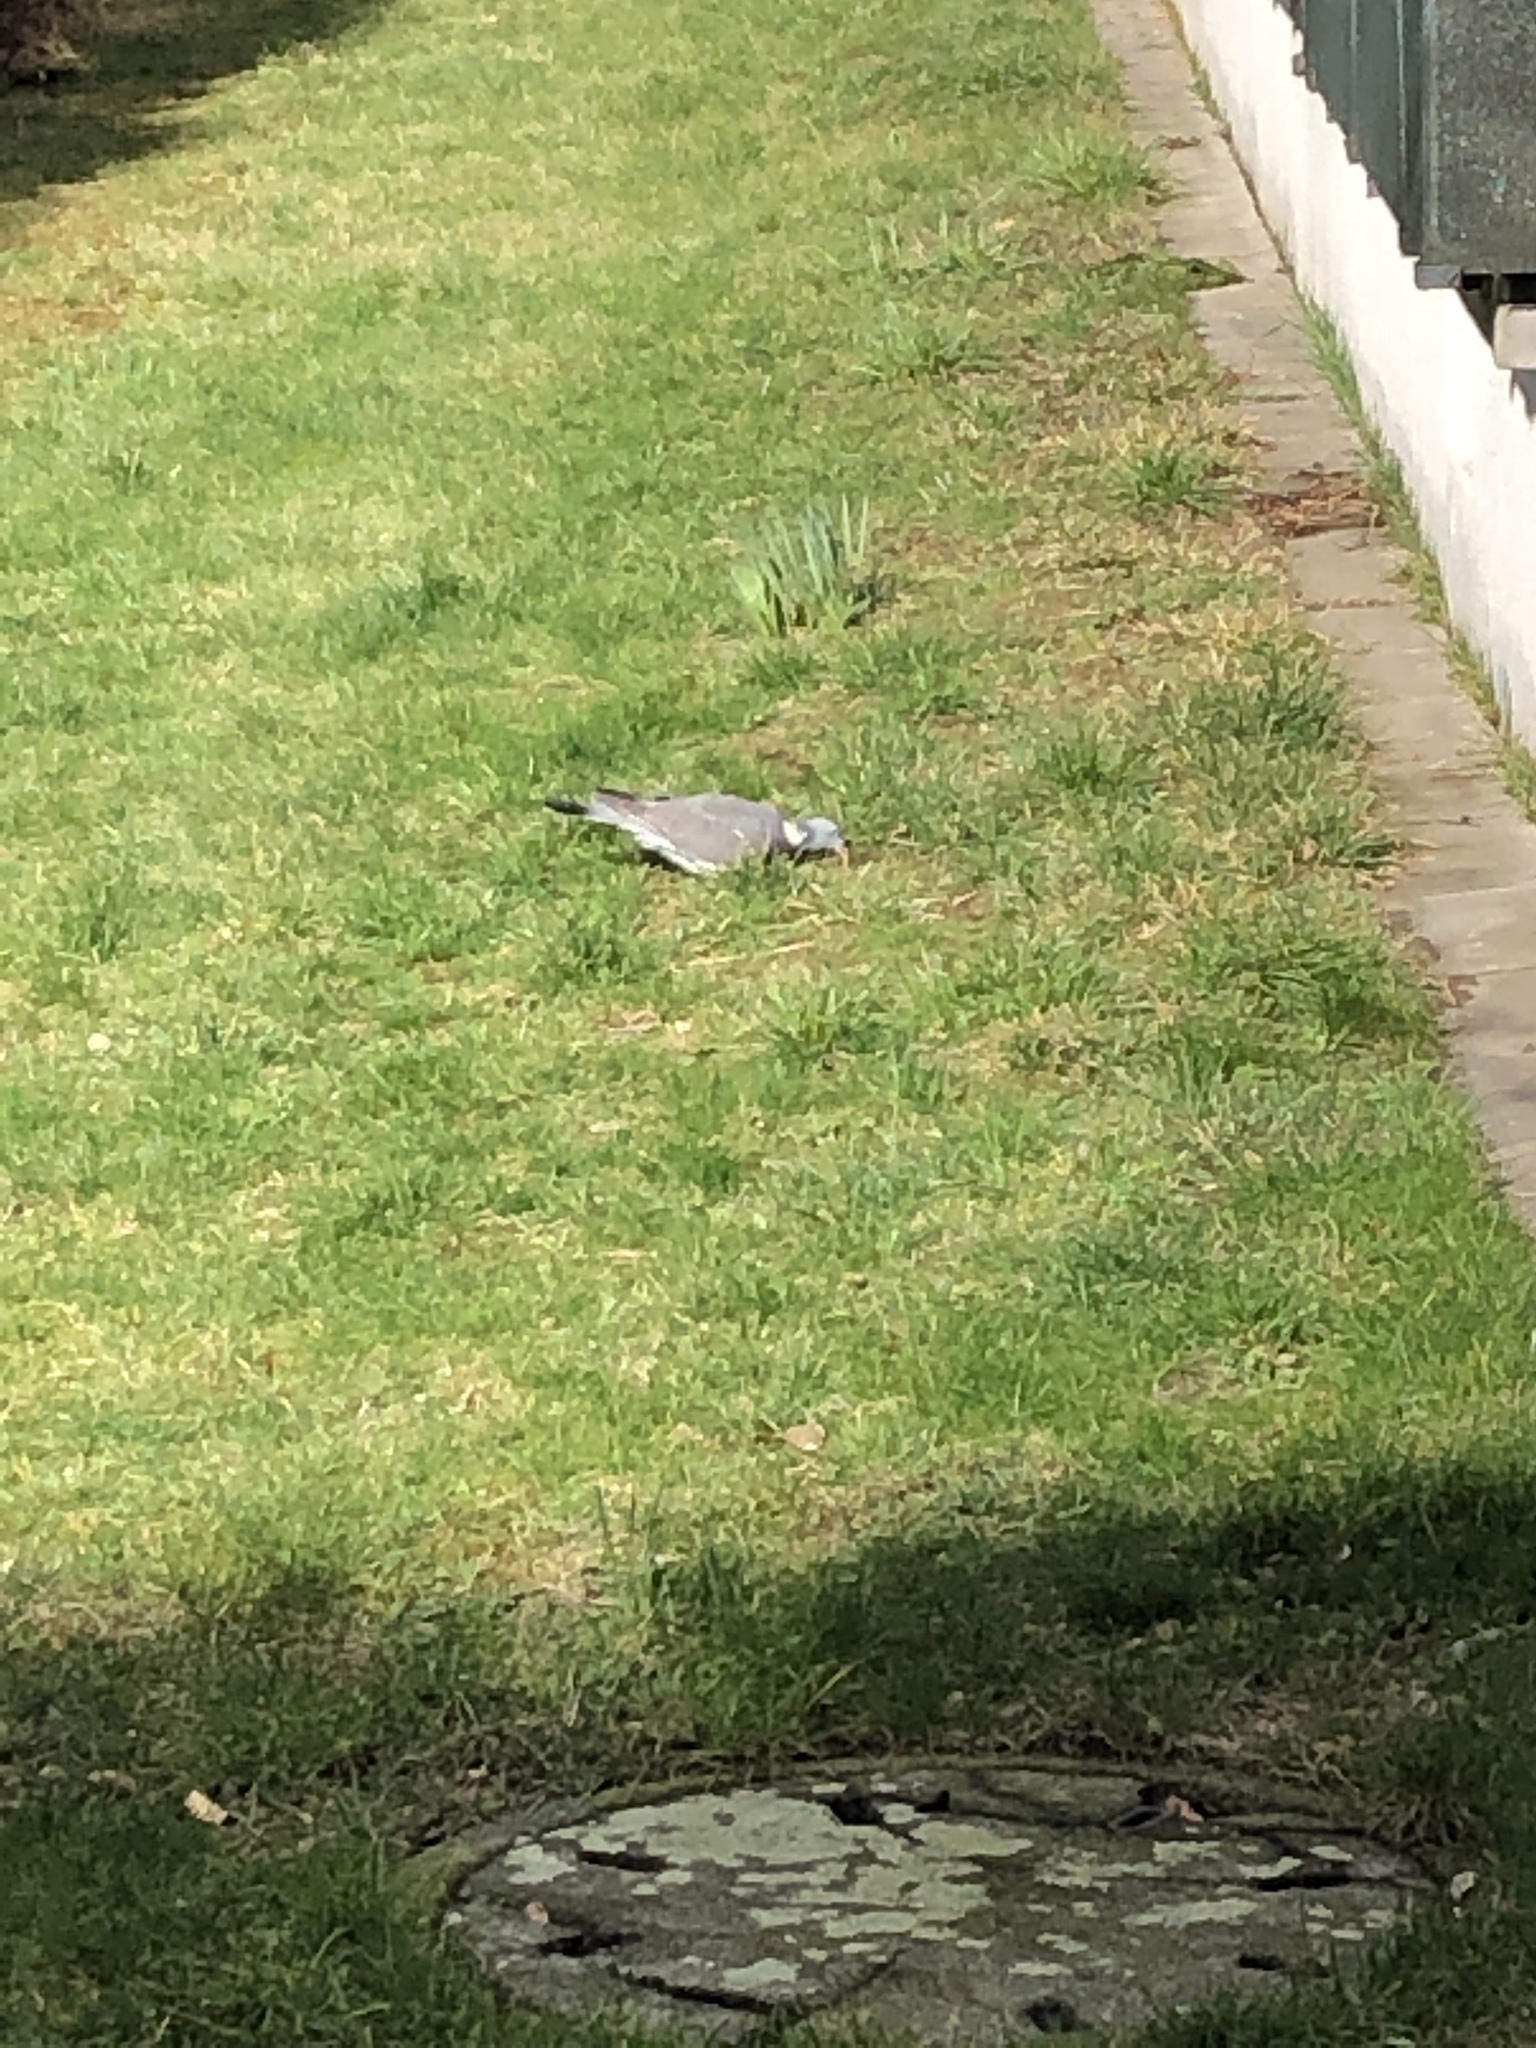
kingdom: Animalia
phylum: Chordata
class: Aves
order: Columbiformes
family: Columbidae
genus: Columba
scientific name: Columba palumbus
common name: Common wood pigeon
